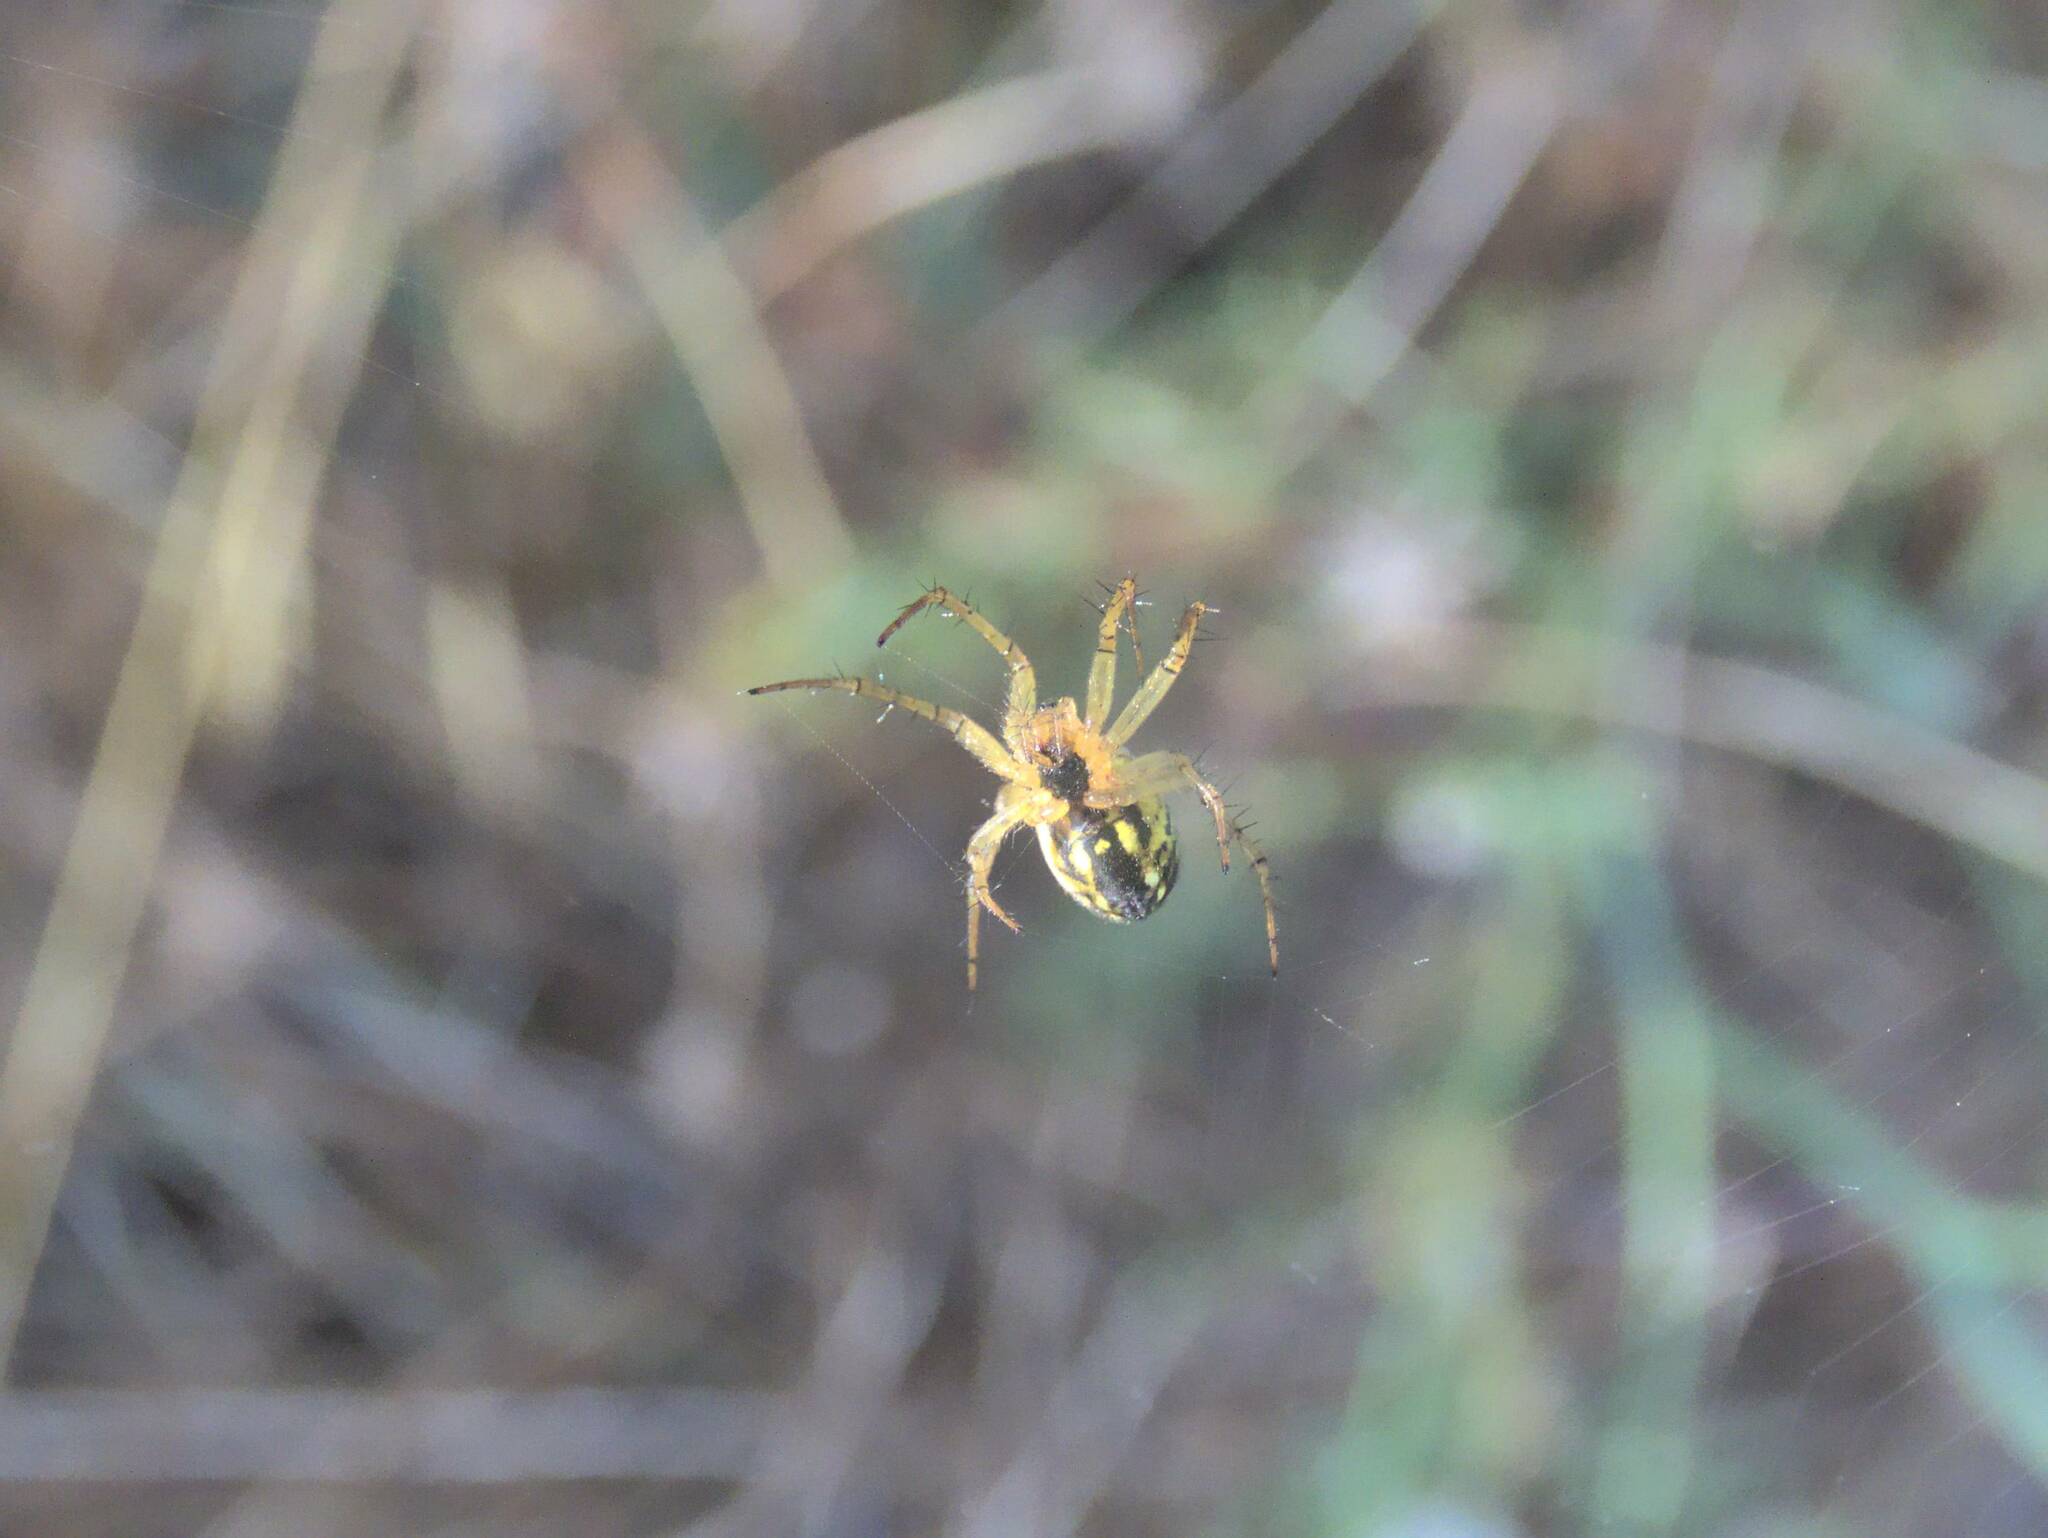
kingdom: Animalia
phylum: Arthropoda
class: Arachnida
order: Araneae
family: Araneidae
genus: Mangora
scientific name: Mangora acalypha
